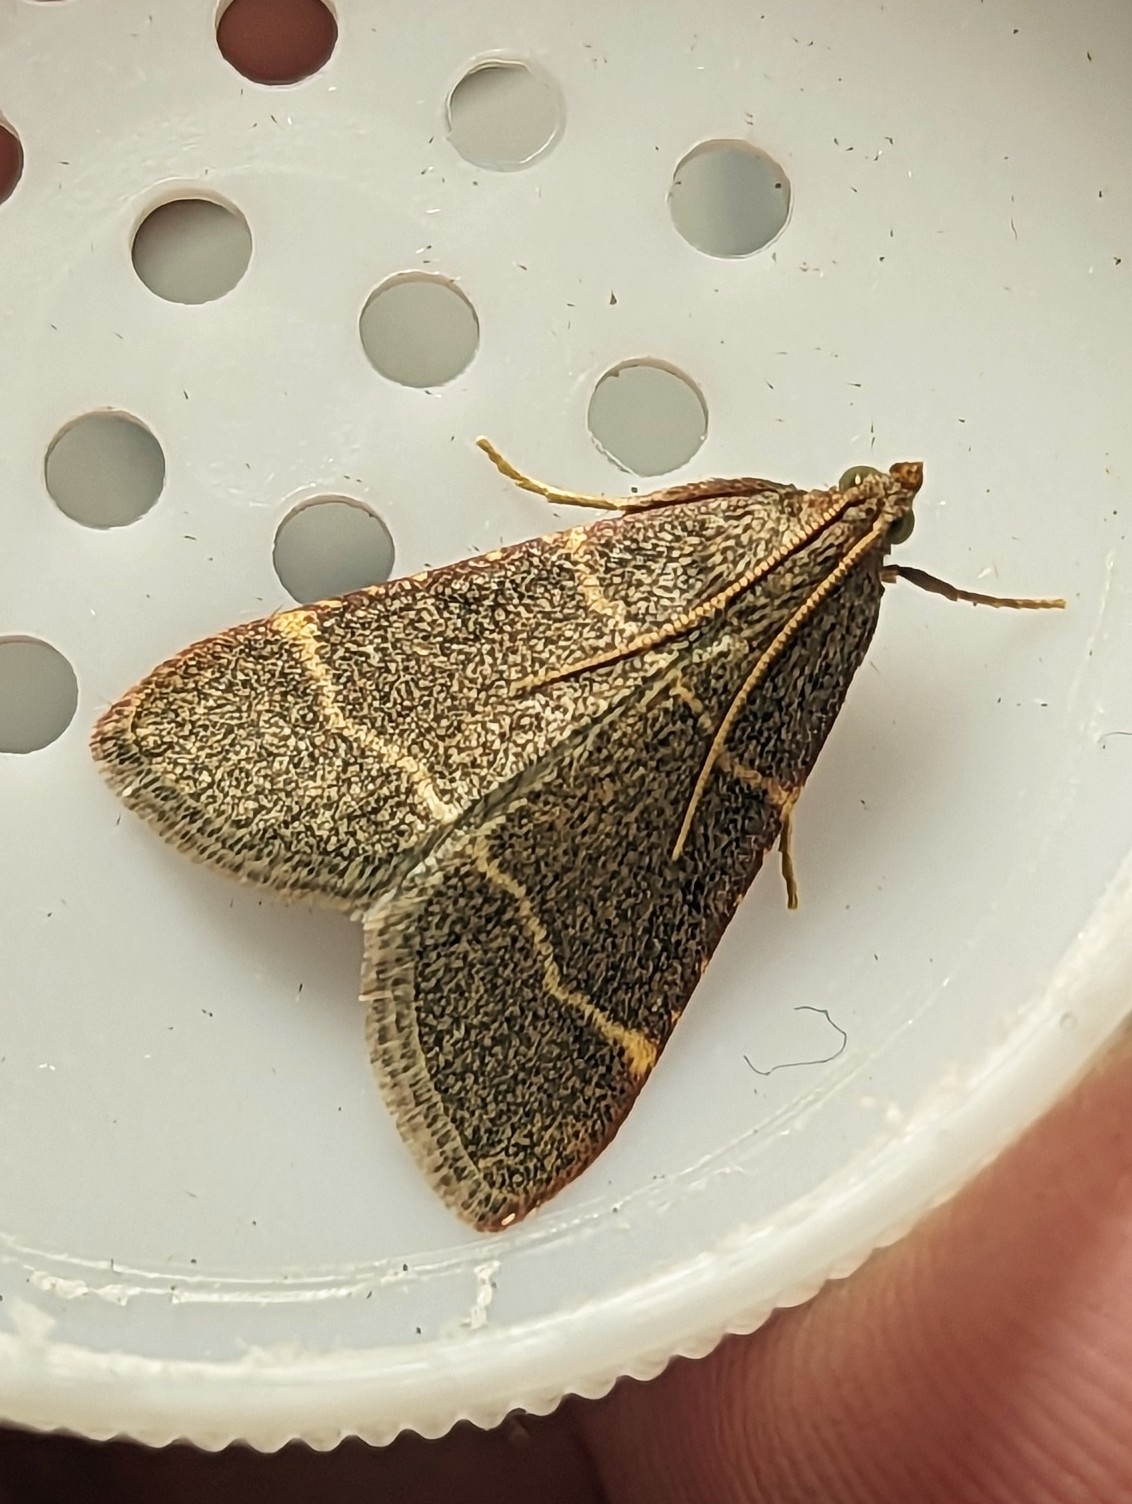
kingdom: Animalia
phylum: Arthropoda
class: Insecta
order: Lepidoptera
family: Pyralidae
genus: Hypsopygia
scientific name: Hypsopygia glaucinalis
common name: Double-striped tabby
